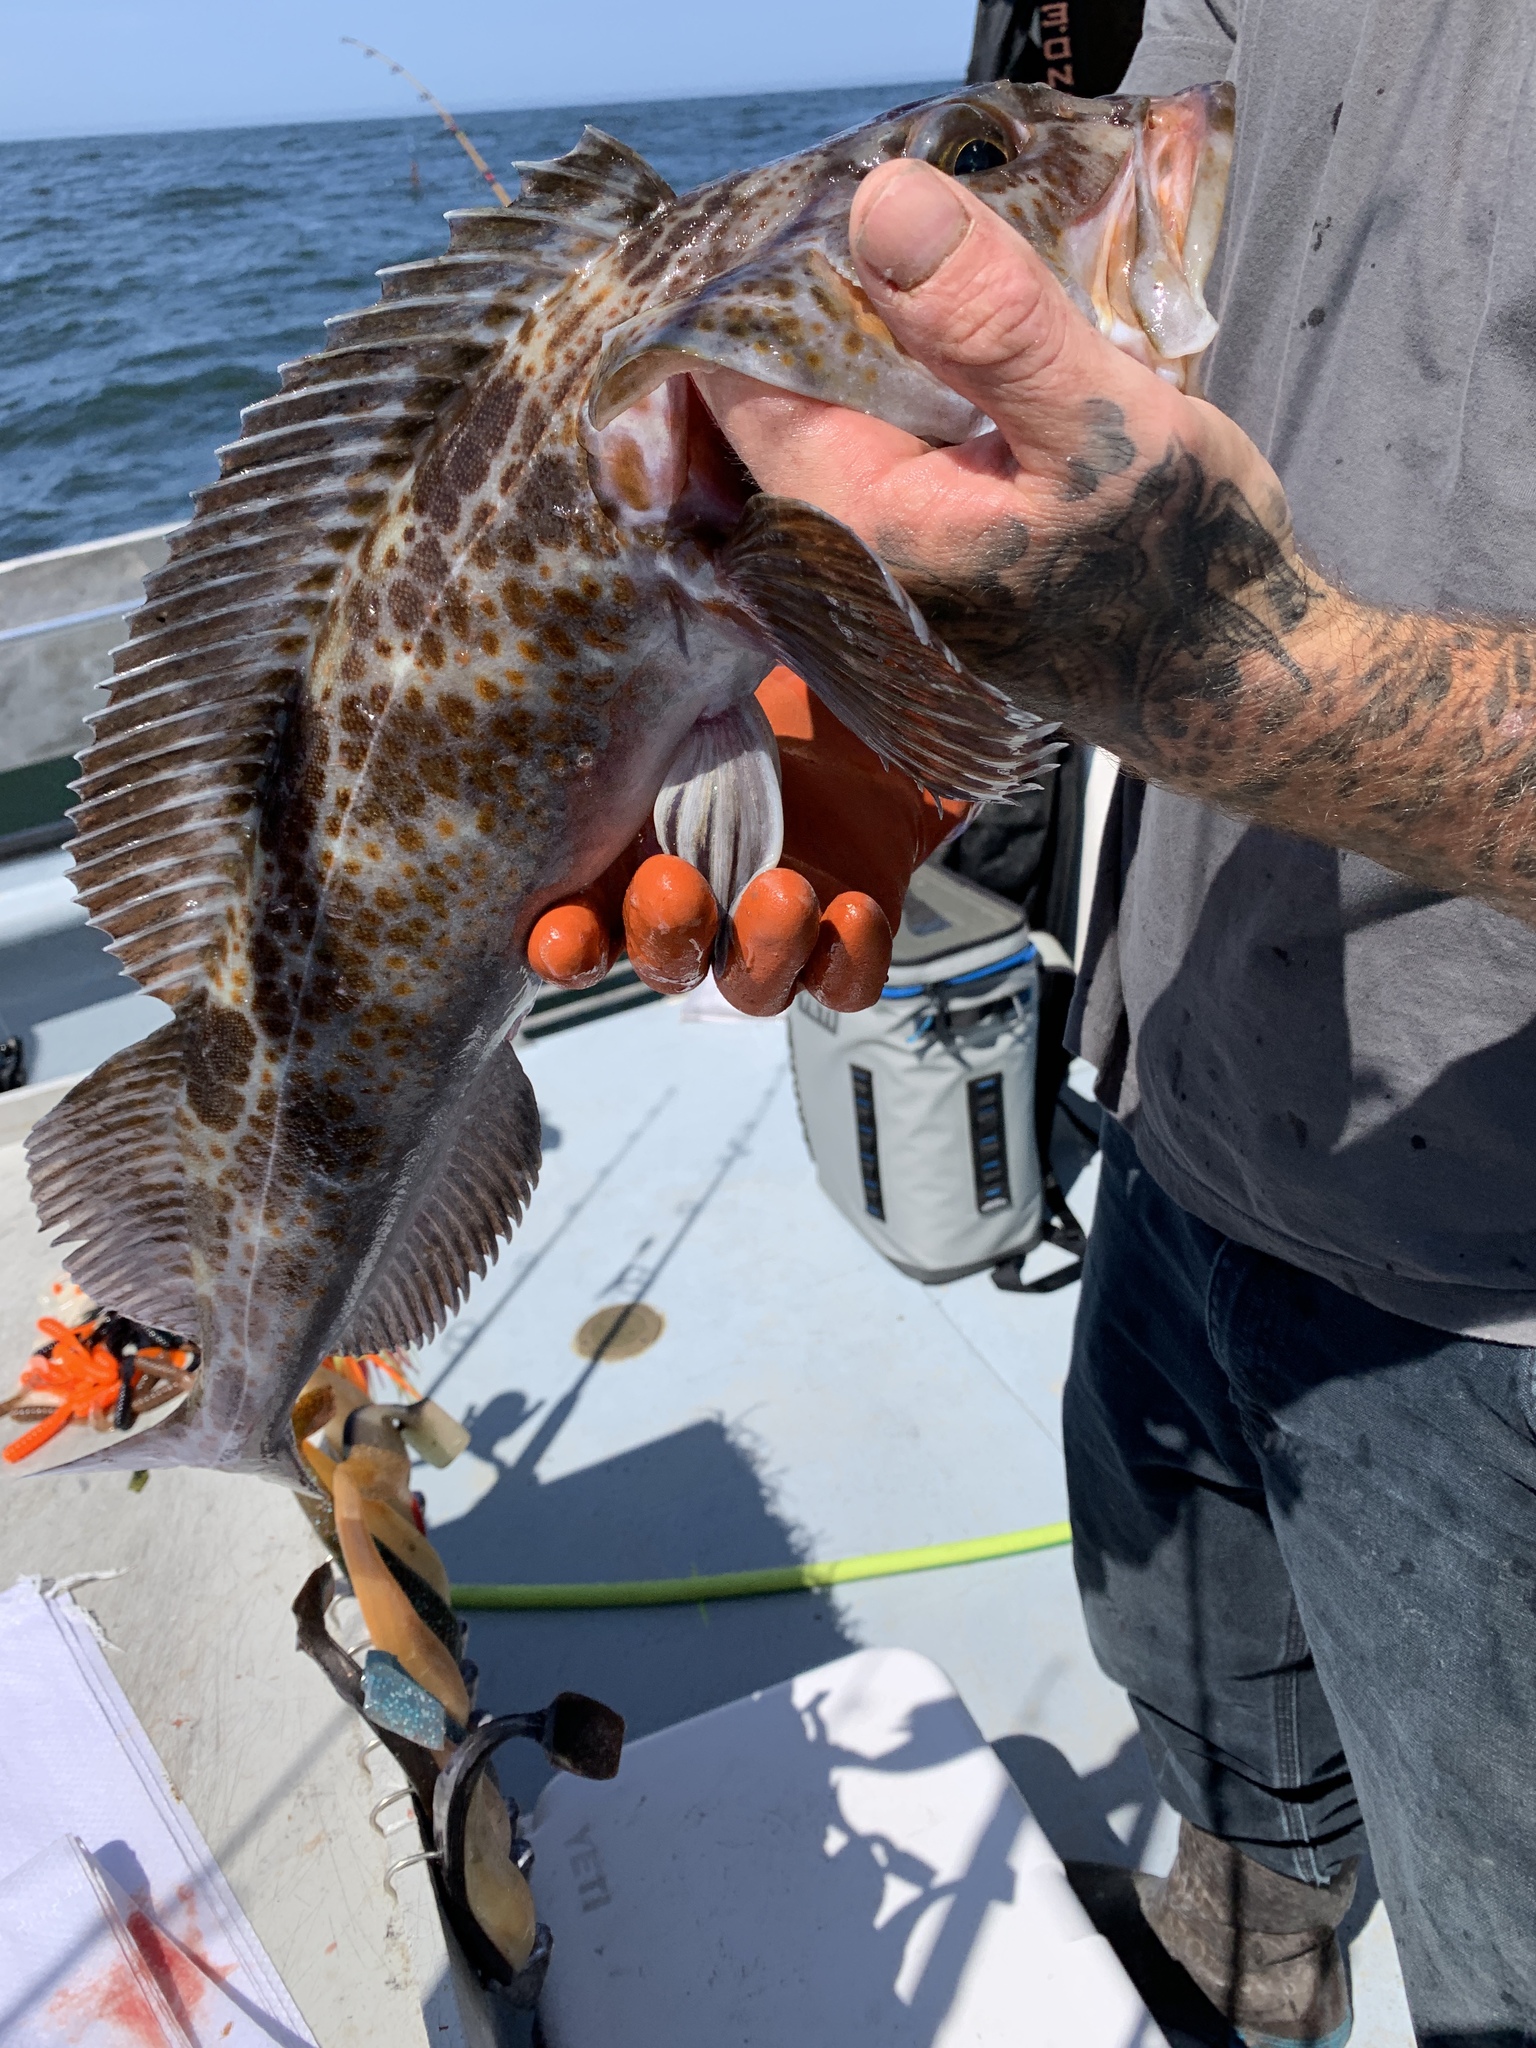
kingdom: Animalia
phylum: Chordata
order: Scorpaeniformes
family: Hexagrammidae
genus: Ophiodon
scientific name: Ophiodon elongatus
